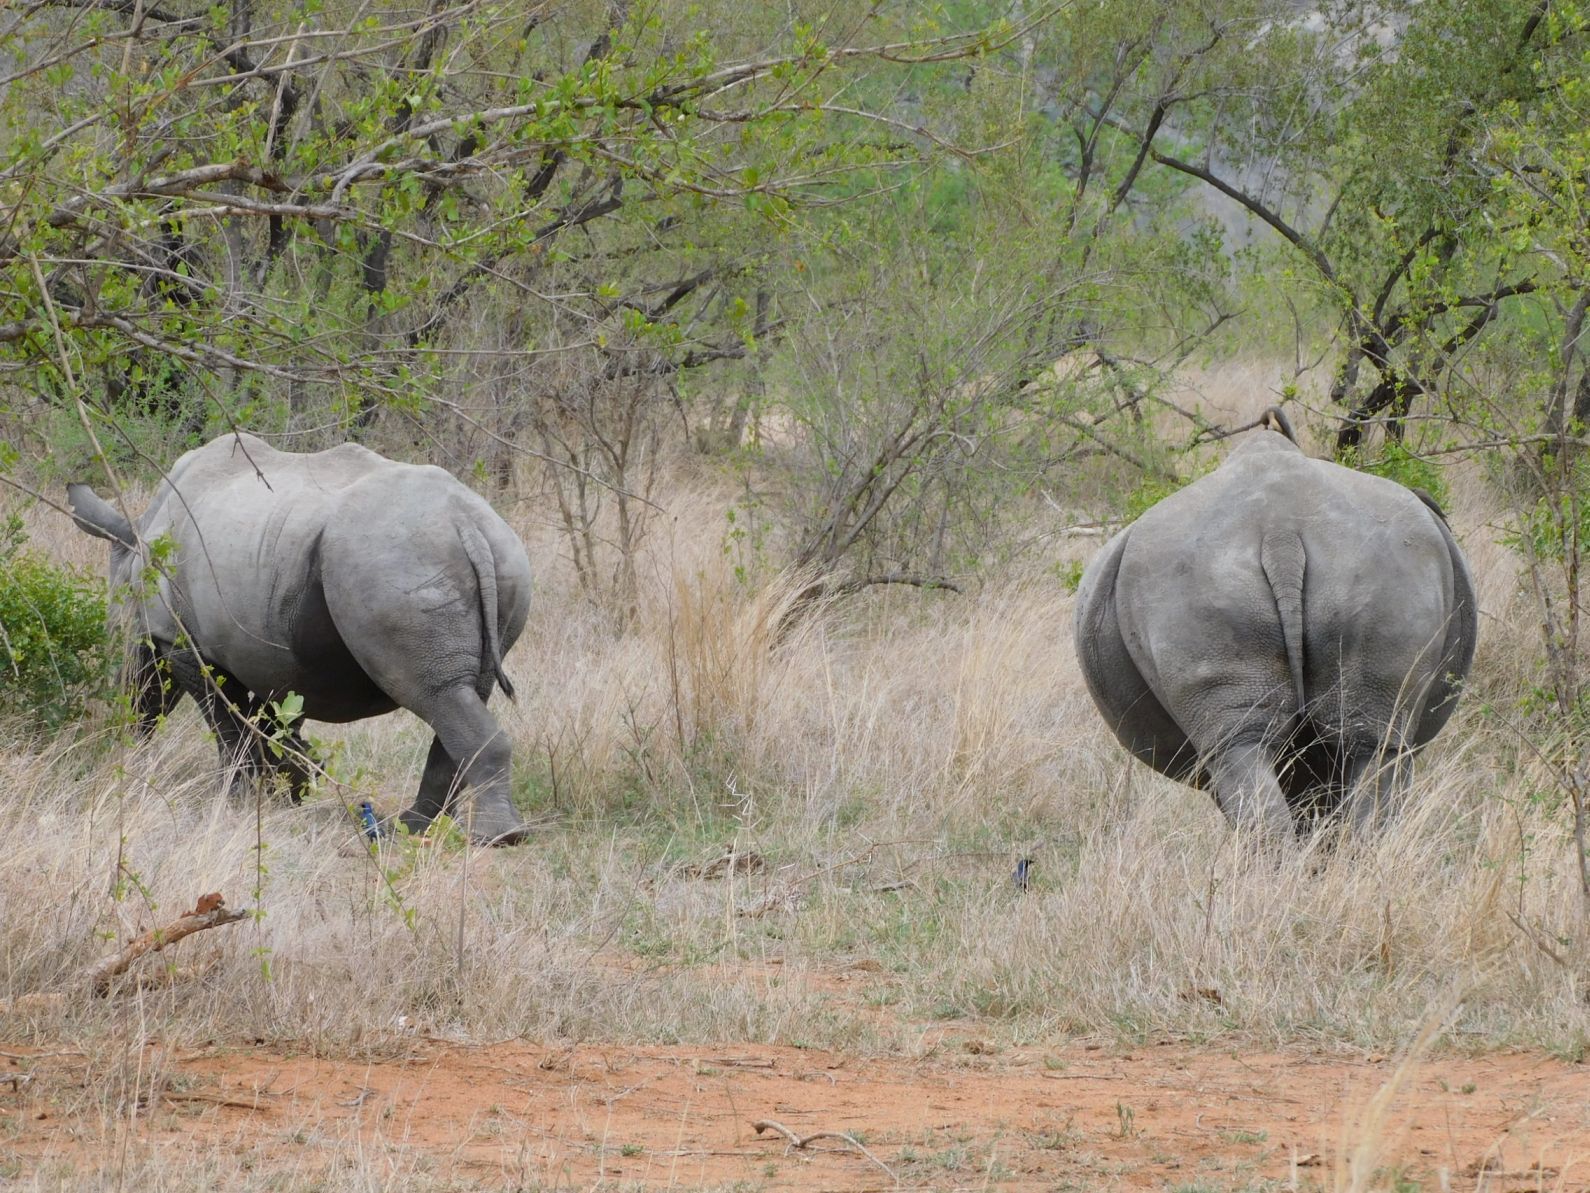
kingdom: Animalia
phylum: Chordata
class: Mammalia
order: Perissodactyla
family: Rhinocerotidae
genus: Ceratotherium
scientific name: Ceratotherium simum
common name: White rhinoceros
